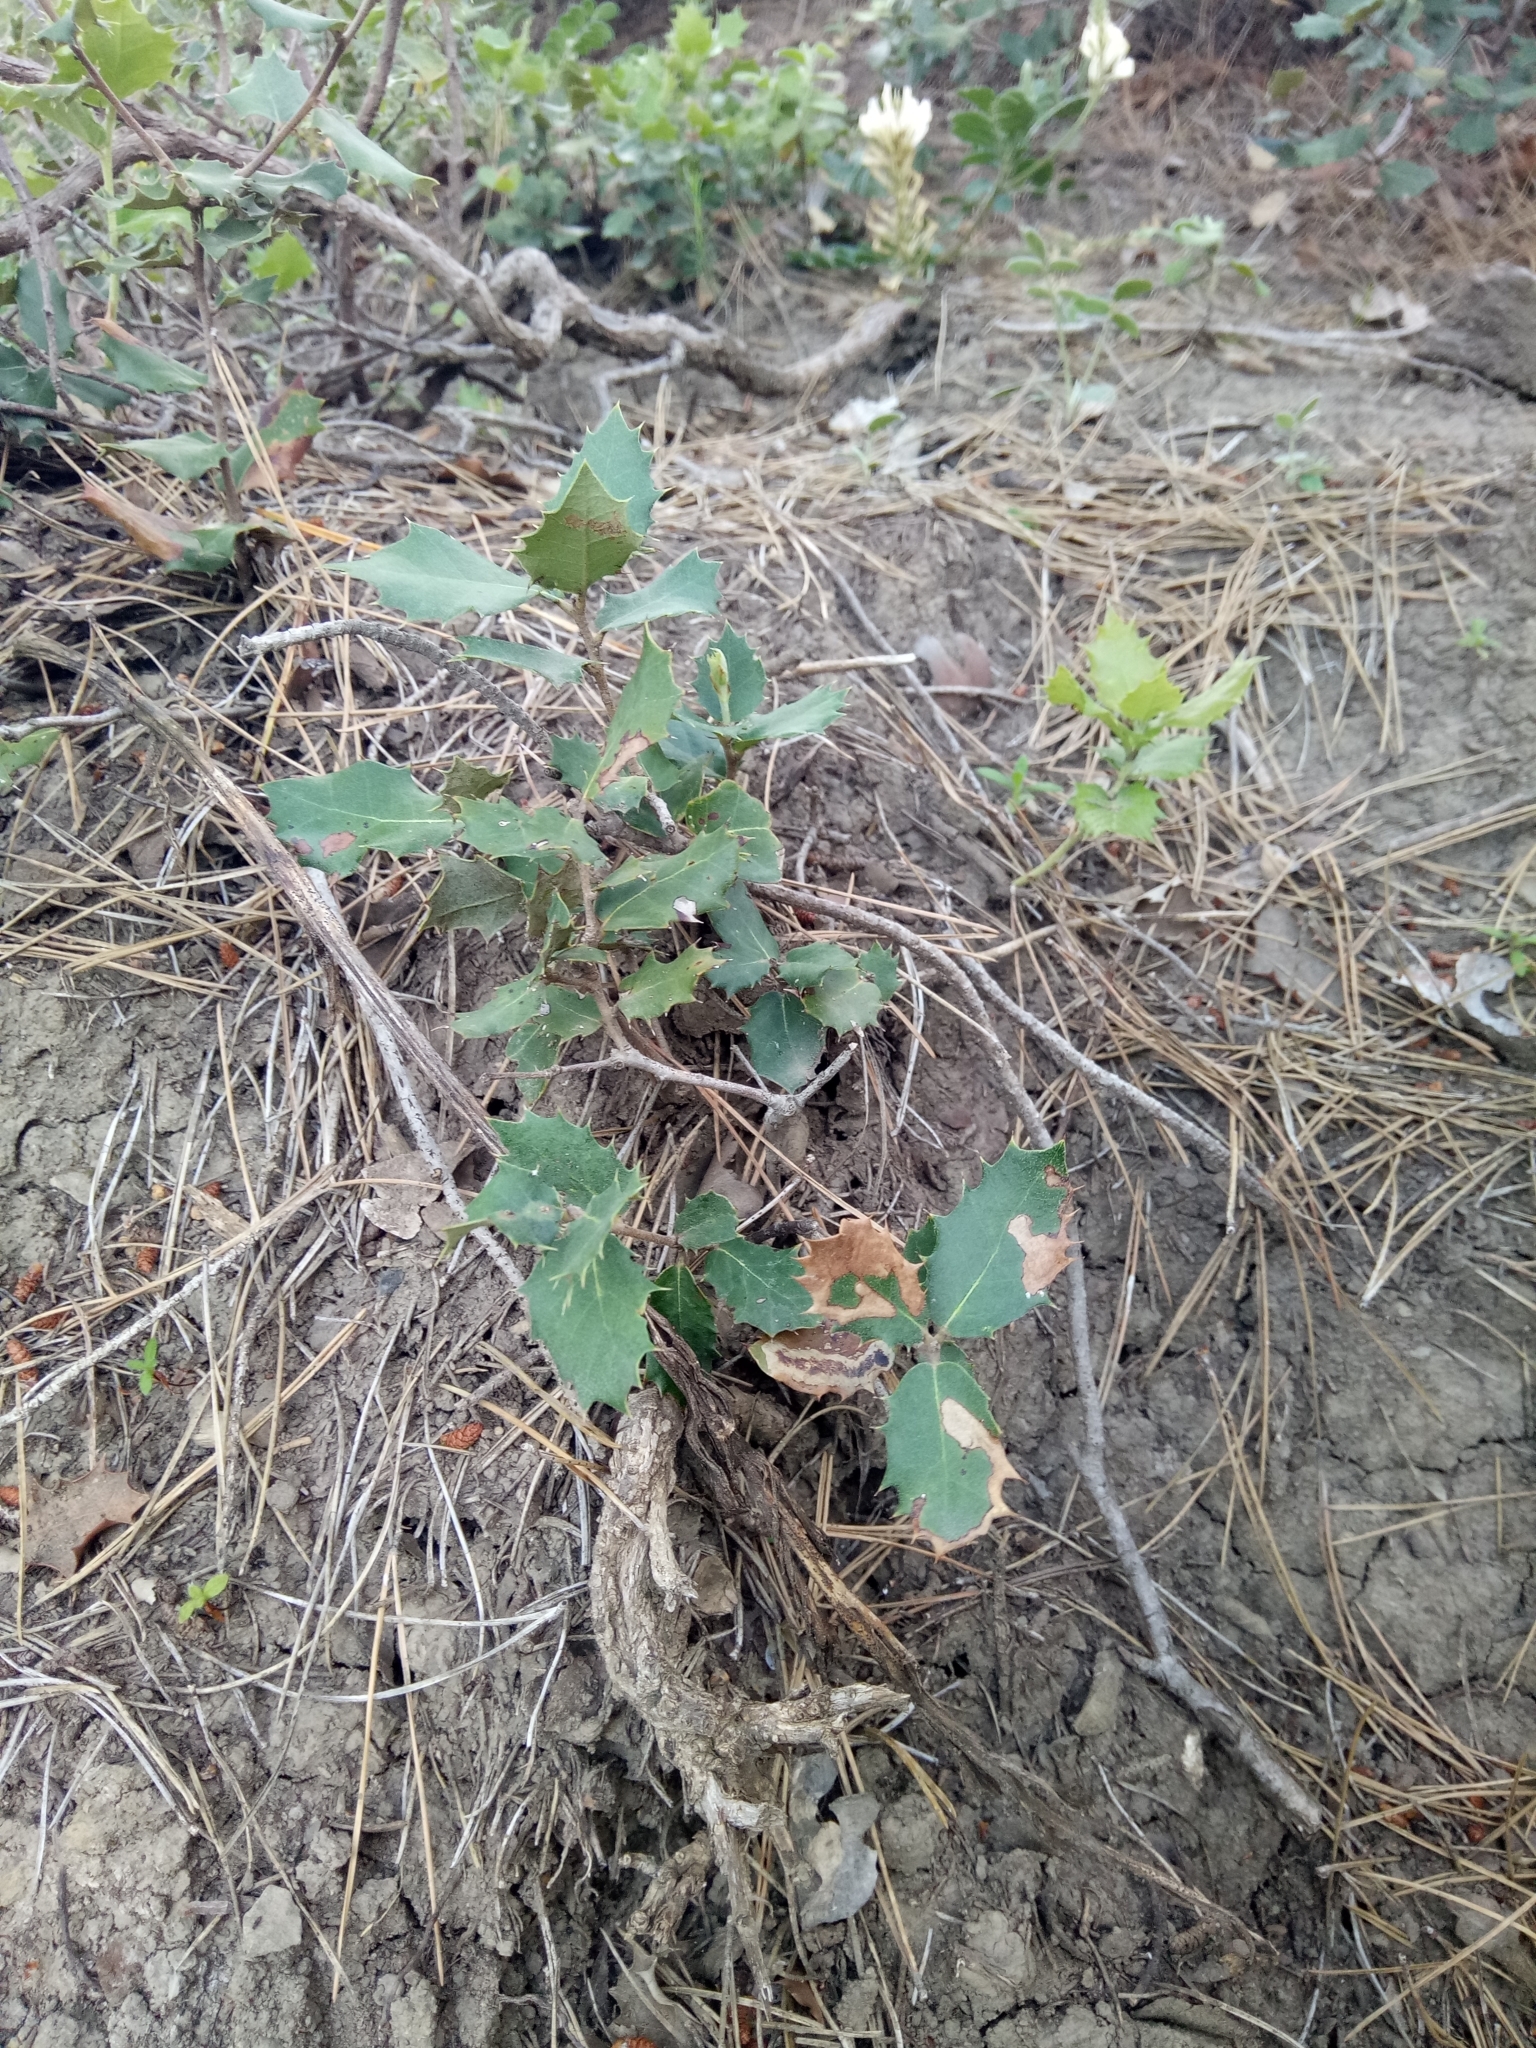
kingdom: Plantae
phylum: Tracheophyta
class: Magnoliopsida
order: Fagales
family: Fagaceae
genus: Quercus
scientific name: Quercus rotundifolia
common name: Holm oak
